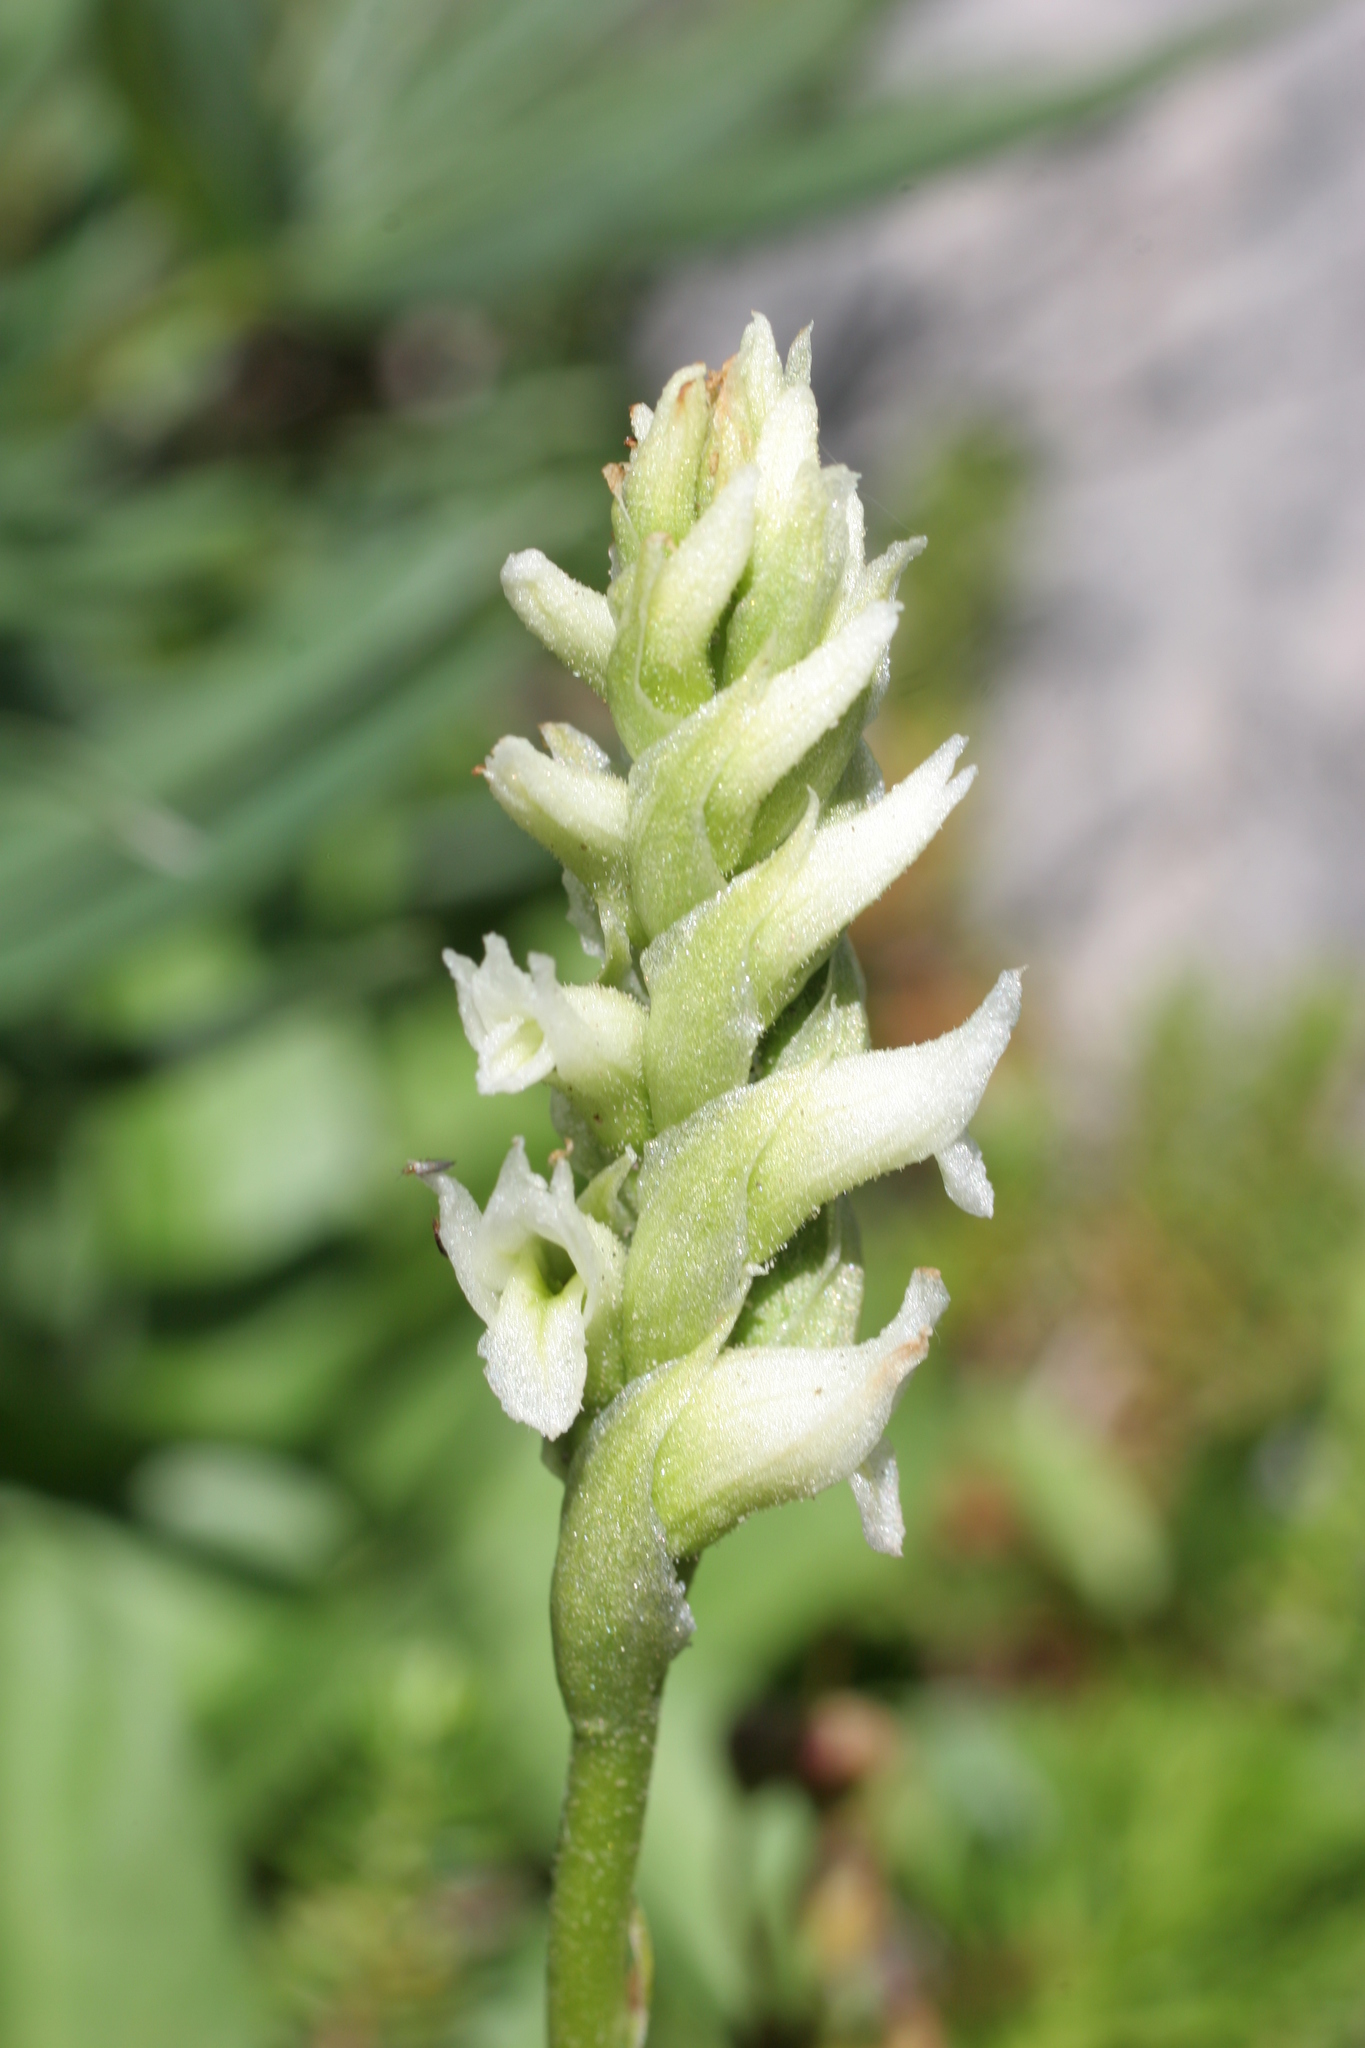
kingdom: Plantae
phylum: Tracheophyta
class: Liliopsida
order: Asparagales
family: Orchidaceae
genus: Spiranthes
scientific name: Spiranthes romanzoffiana
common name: Irish lady's-tresses
